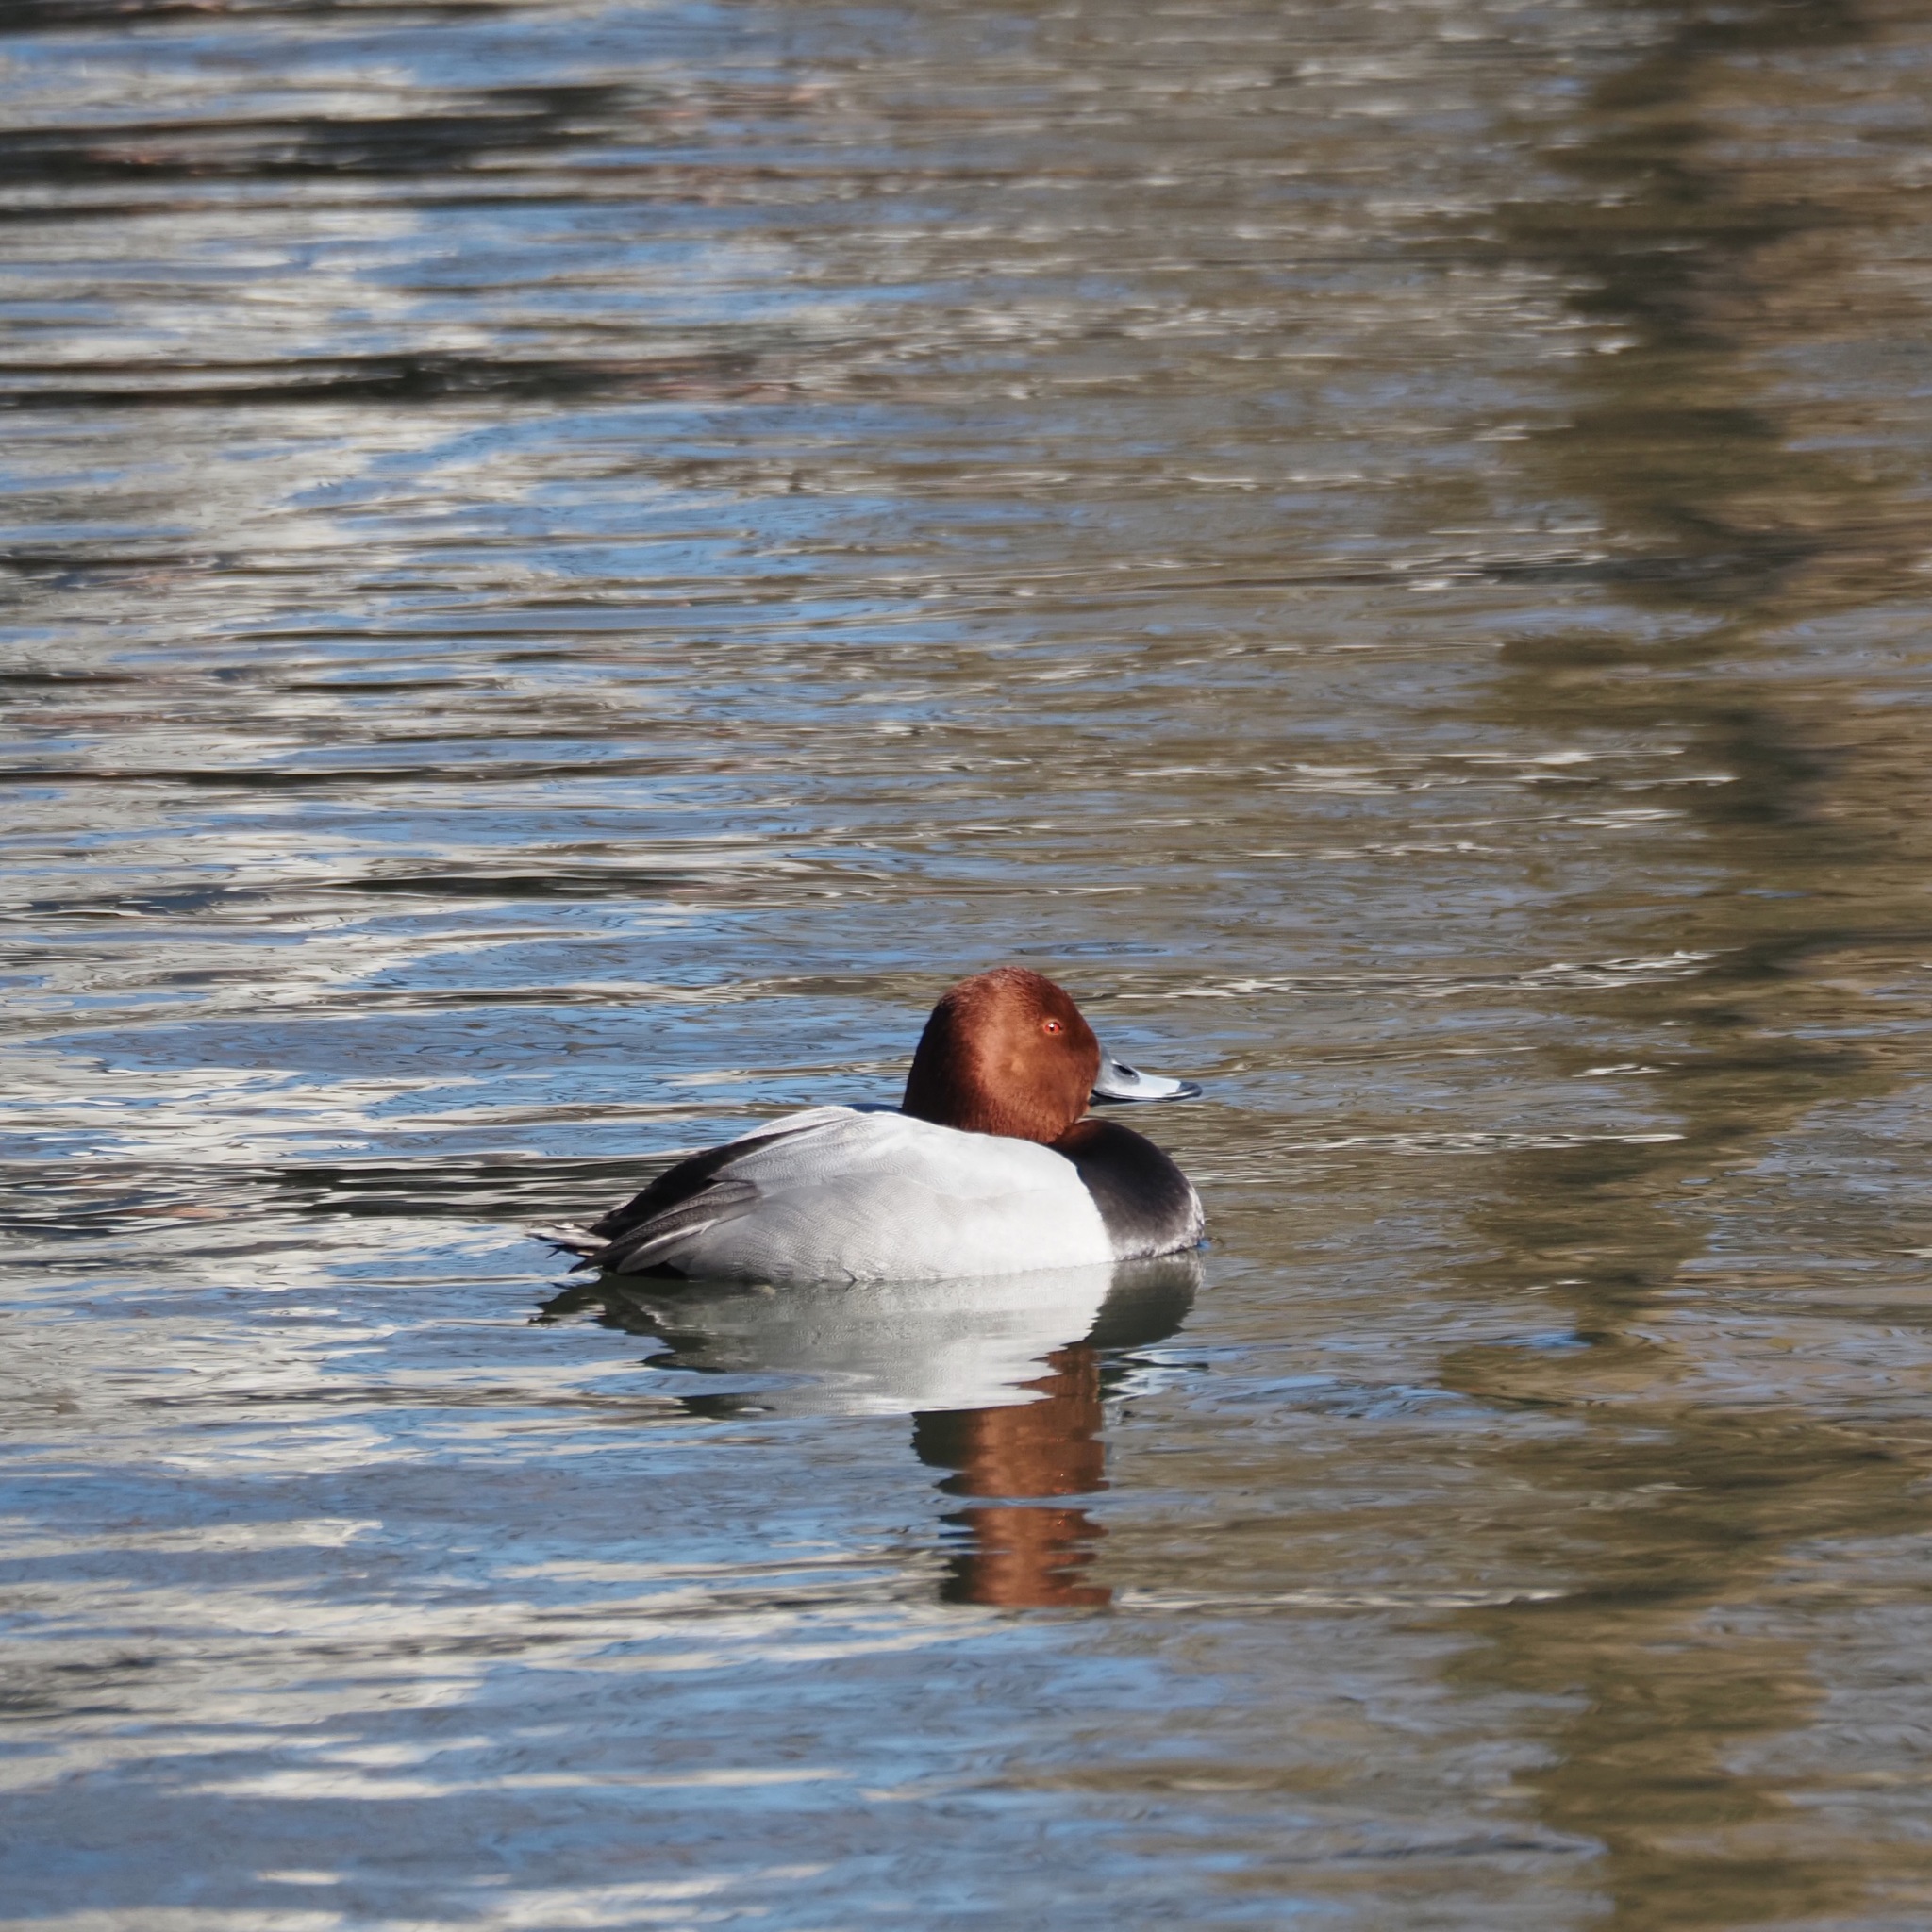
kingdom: Animalia
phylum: Chordata
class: Aves
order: Anseriformes
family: Anatidae
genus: Aythya
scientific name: Aythya ferina
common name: Common pochard
